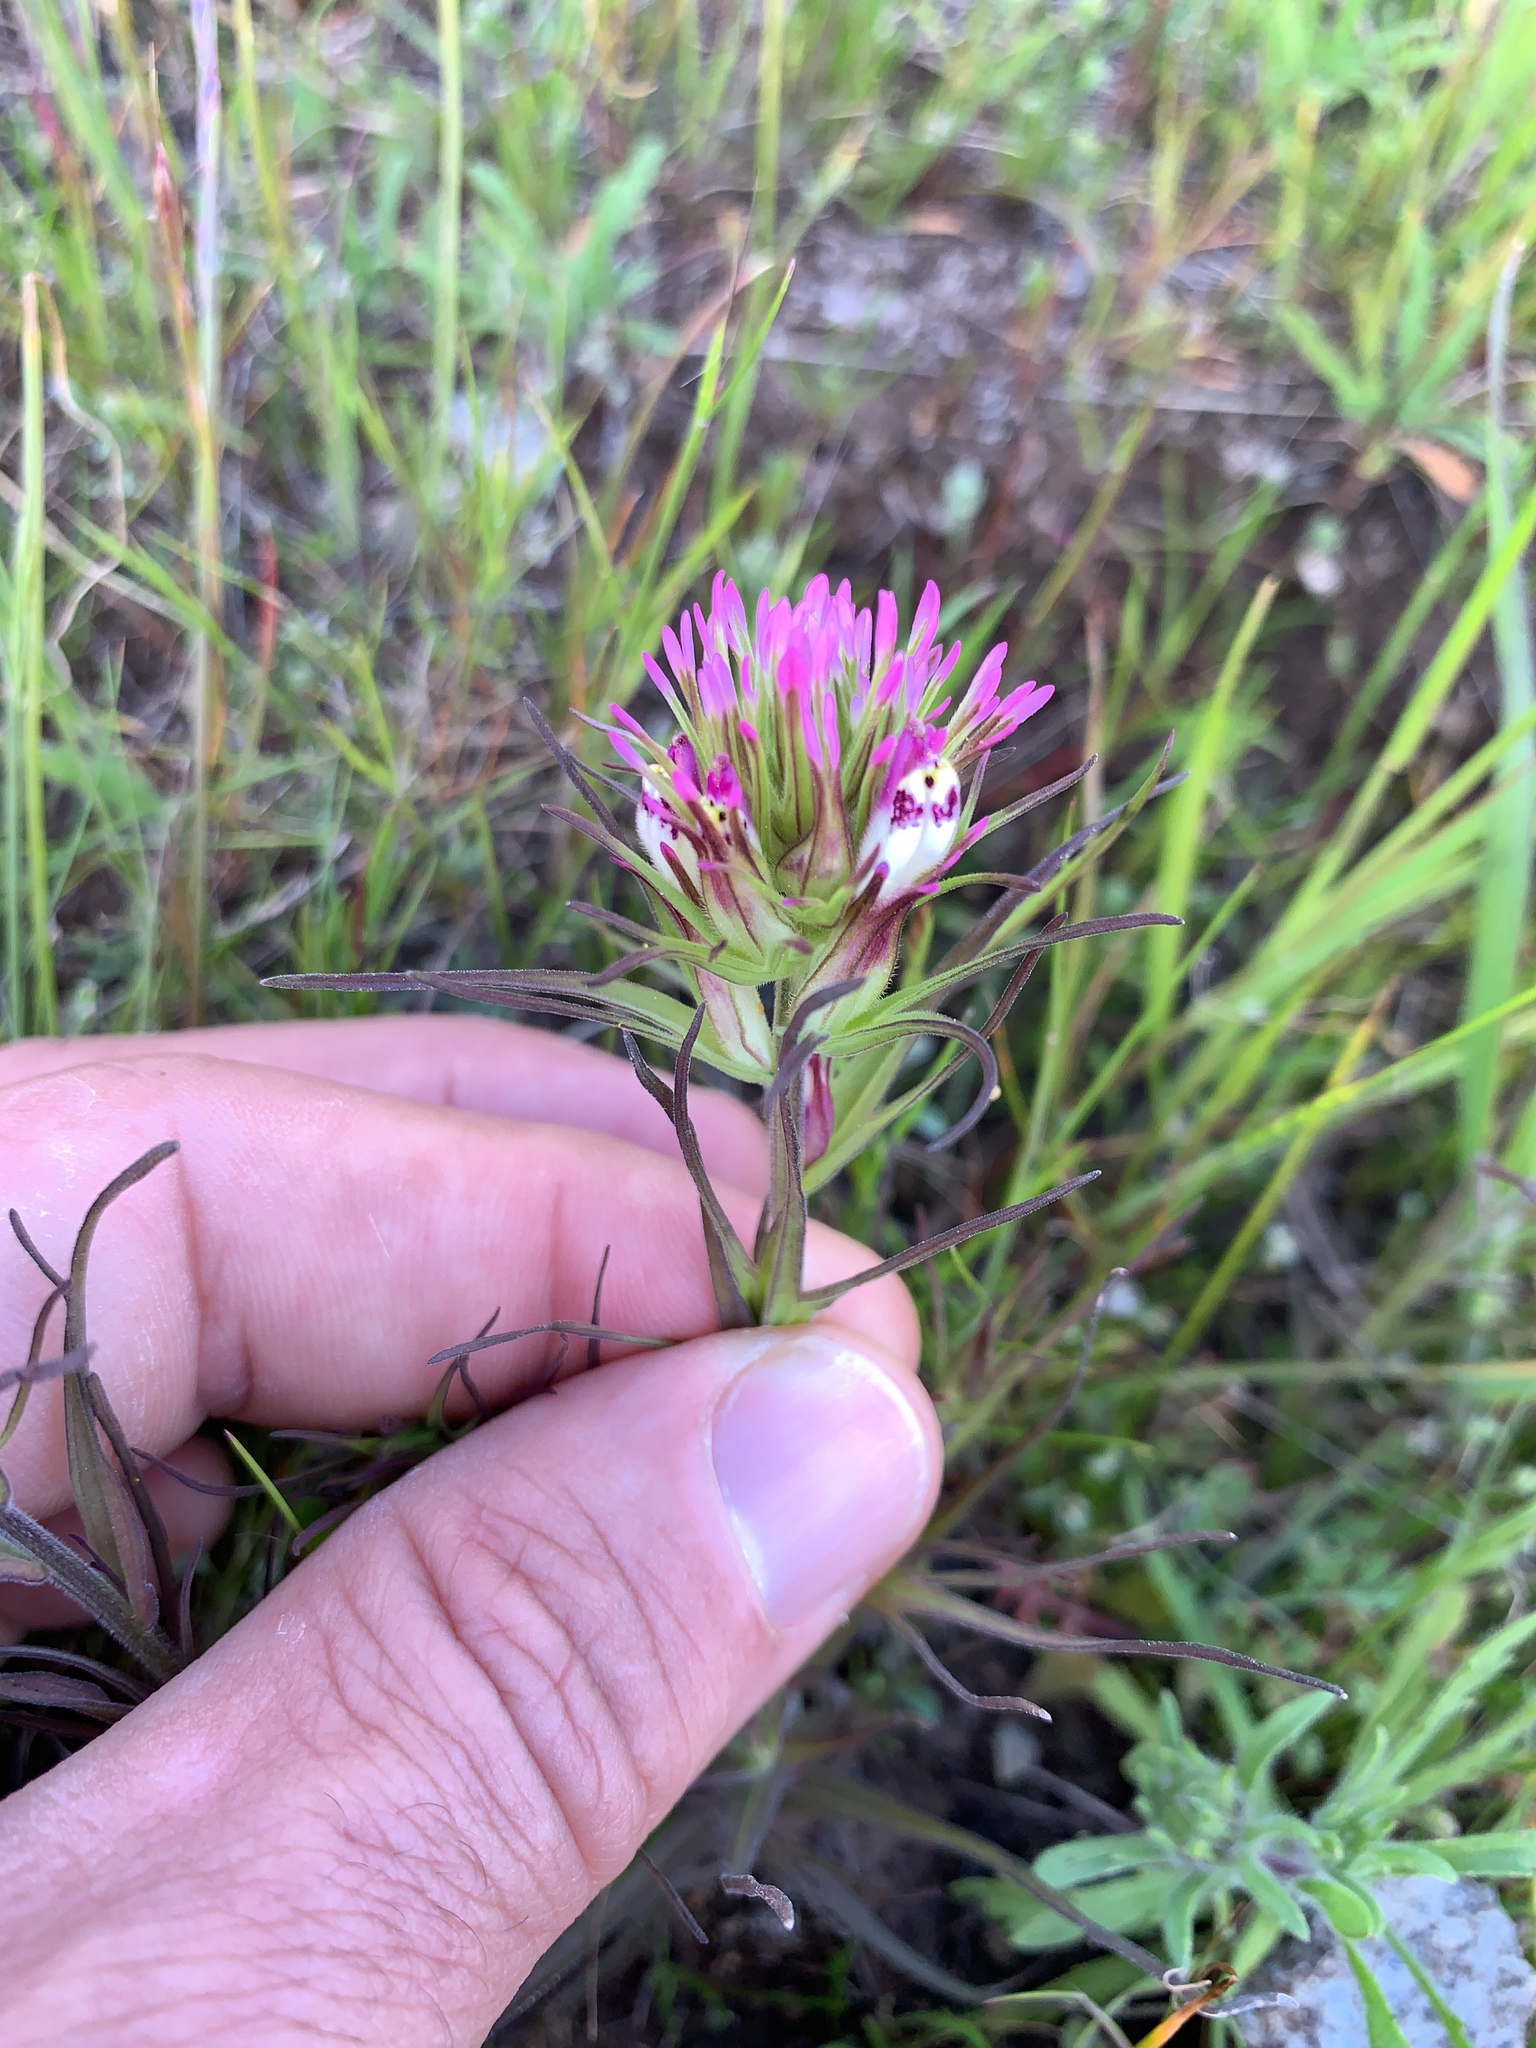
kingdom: Plantae
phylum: Tracheophyta
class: Magnoliopsida
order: Lamiales
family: Orobanchaceae
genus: Castilleja
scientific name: Castilleja densiflora
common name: Dense-flower indian paintbrush
